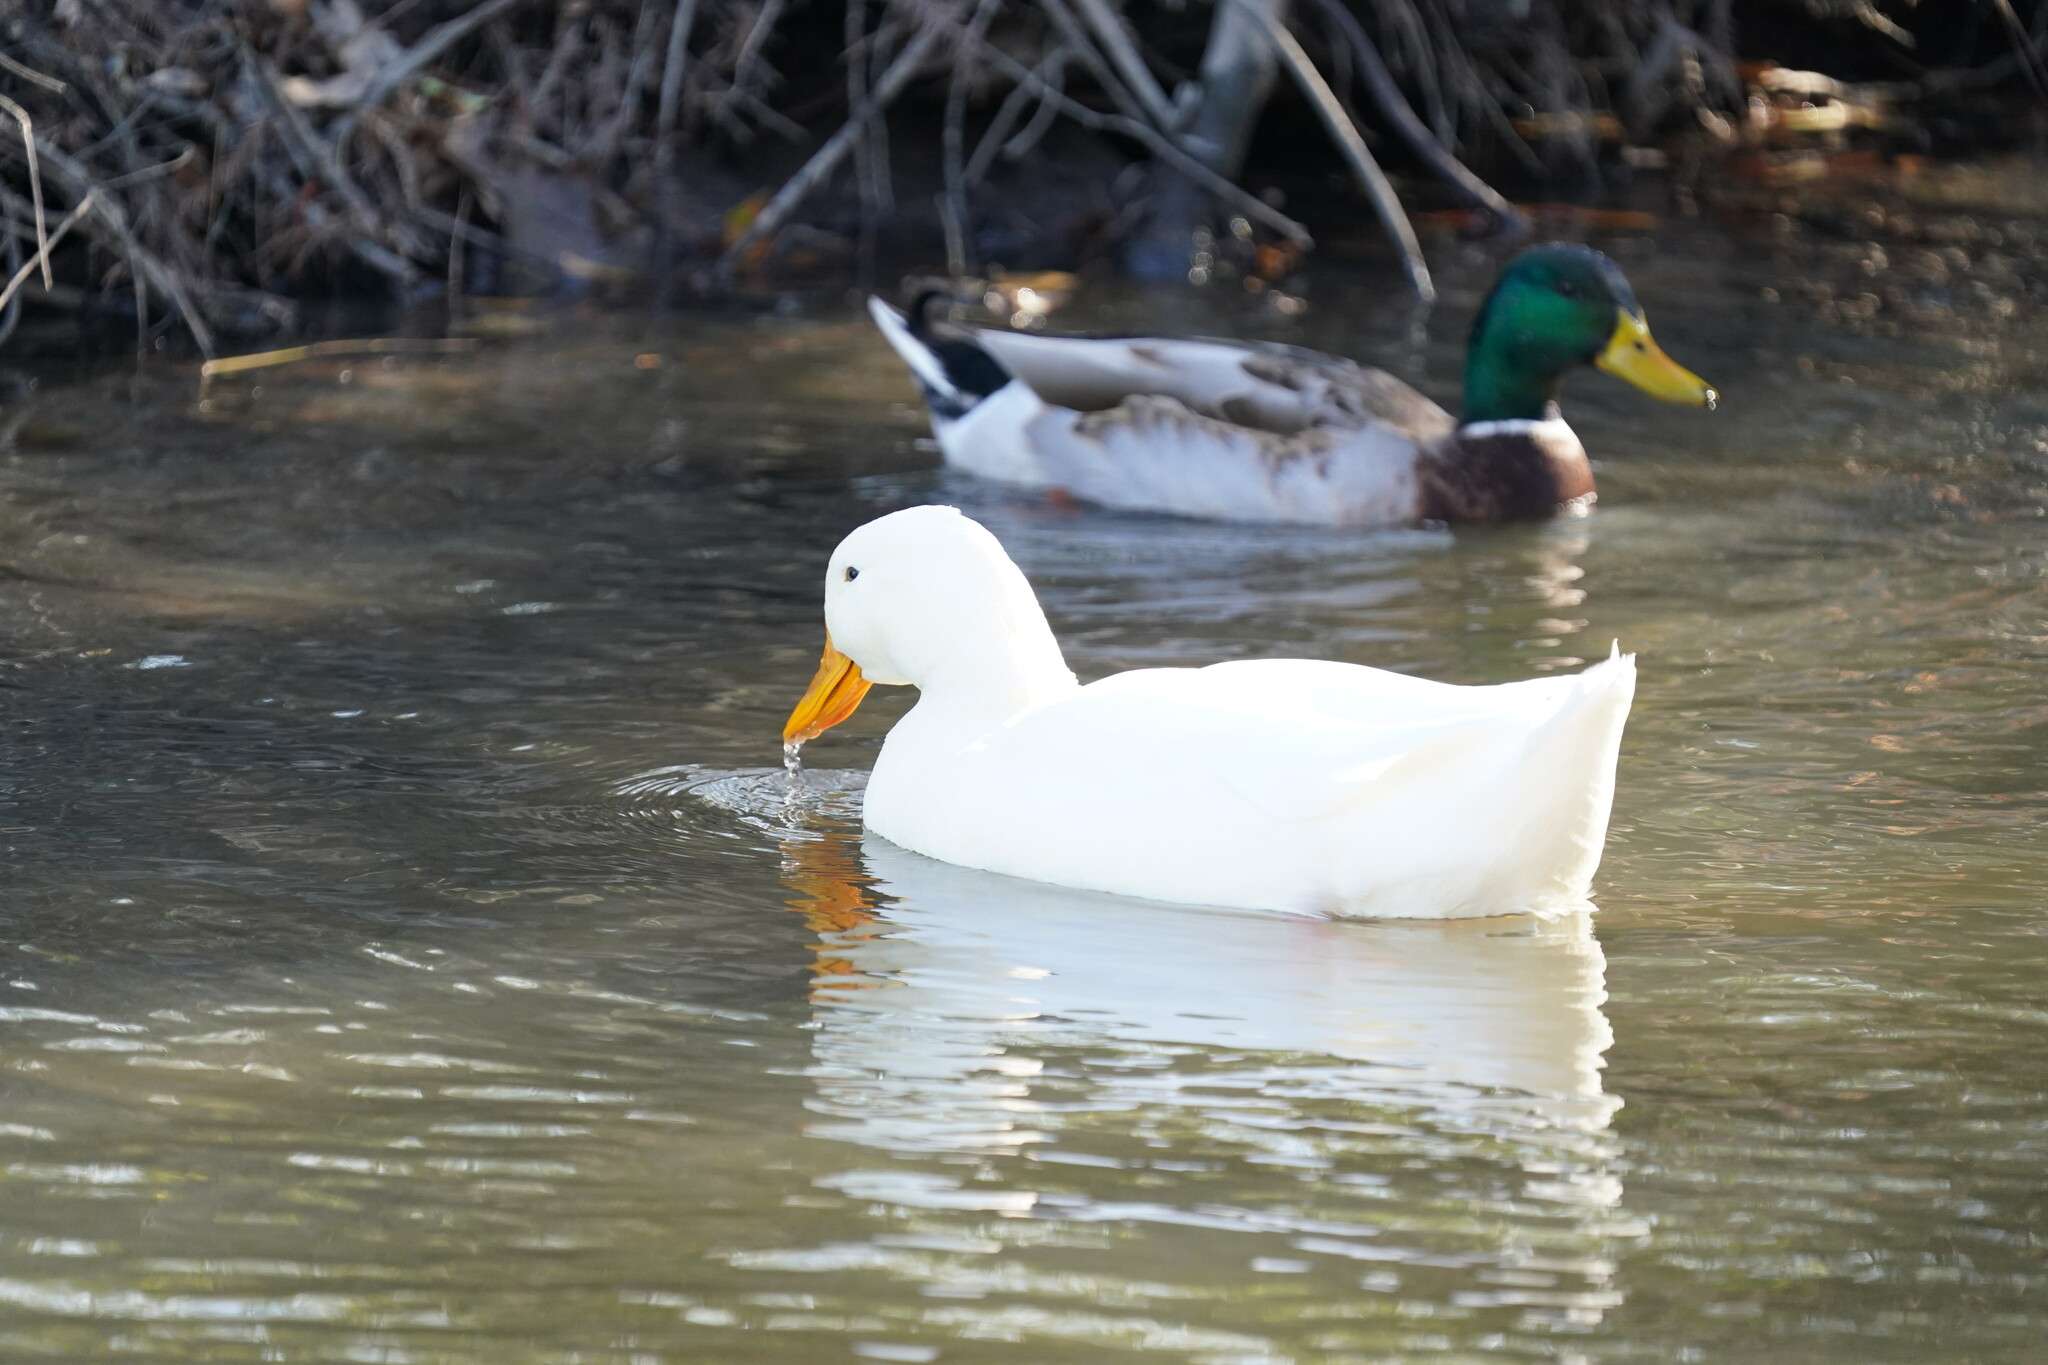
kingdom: Animalia
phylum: Chordata
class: Aves
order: Anseriformes
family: Anatidae
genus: Anas
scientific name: Anas platyrhynchos
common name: Mallard
